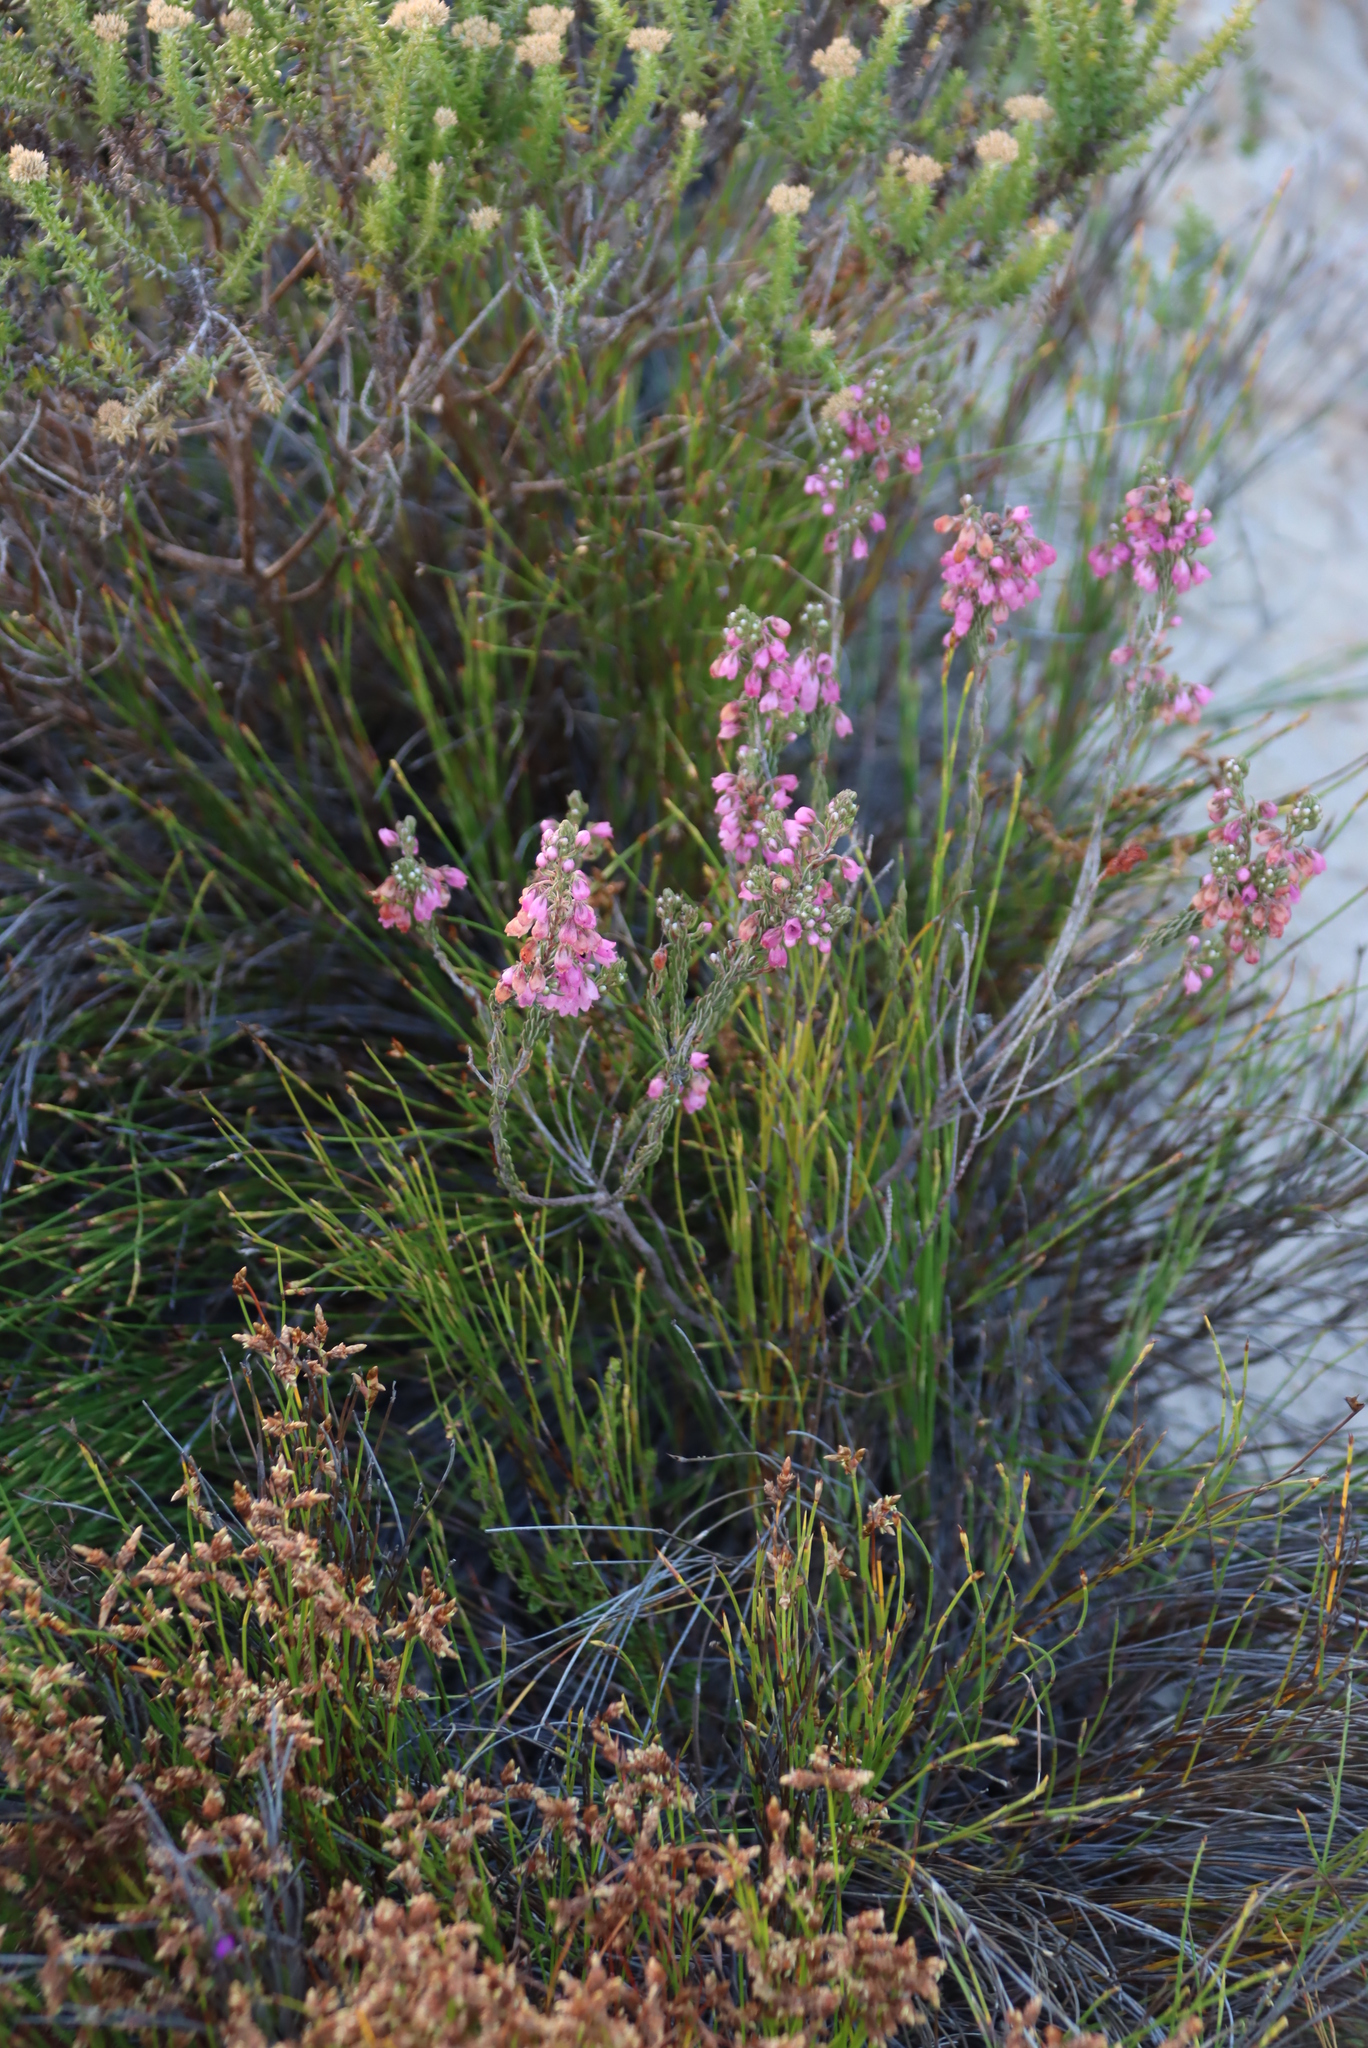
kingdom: Plantae
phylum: Tracheophyta
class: Magnoliopsida
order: Ericales
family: Ericaceae
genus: Erica
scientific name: Erica viscaria
